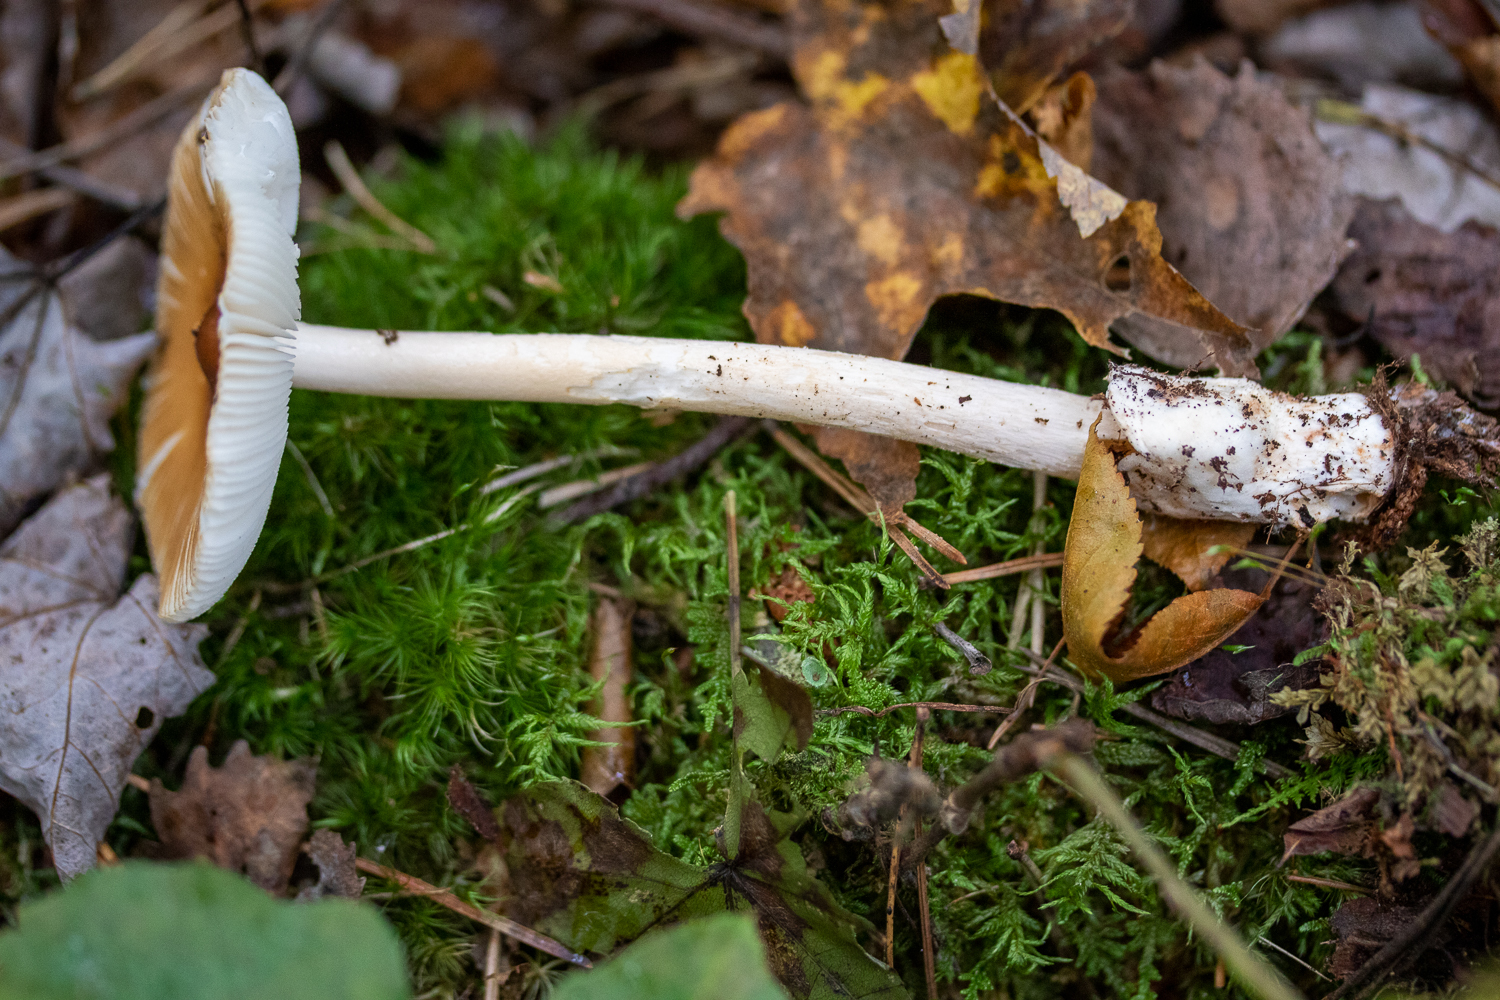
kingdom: Fungi
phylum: Basidiomycota
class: Agaricomycetes
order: Agaricales
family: Amanitaceae
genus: Amanita
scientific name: Amanita fulva
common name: Tawny grisette
